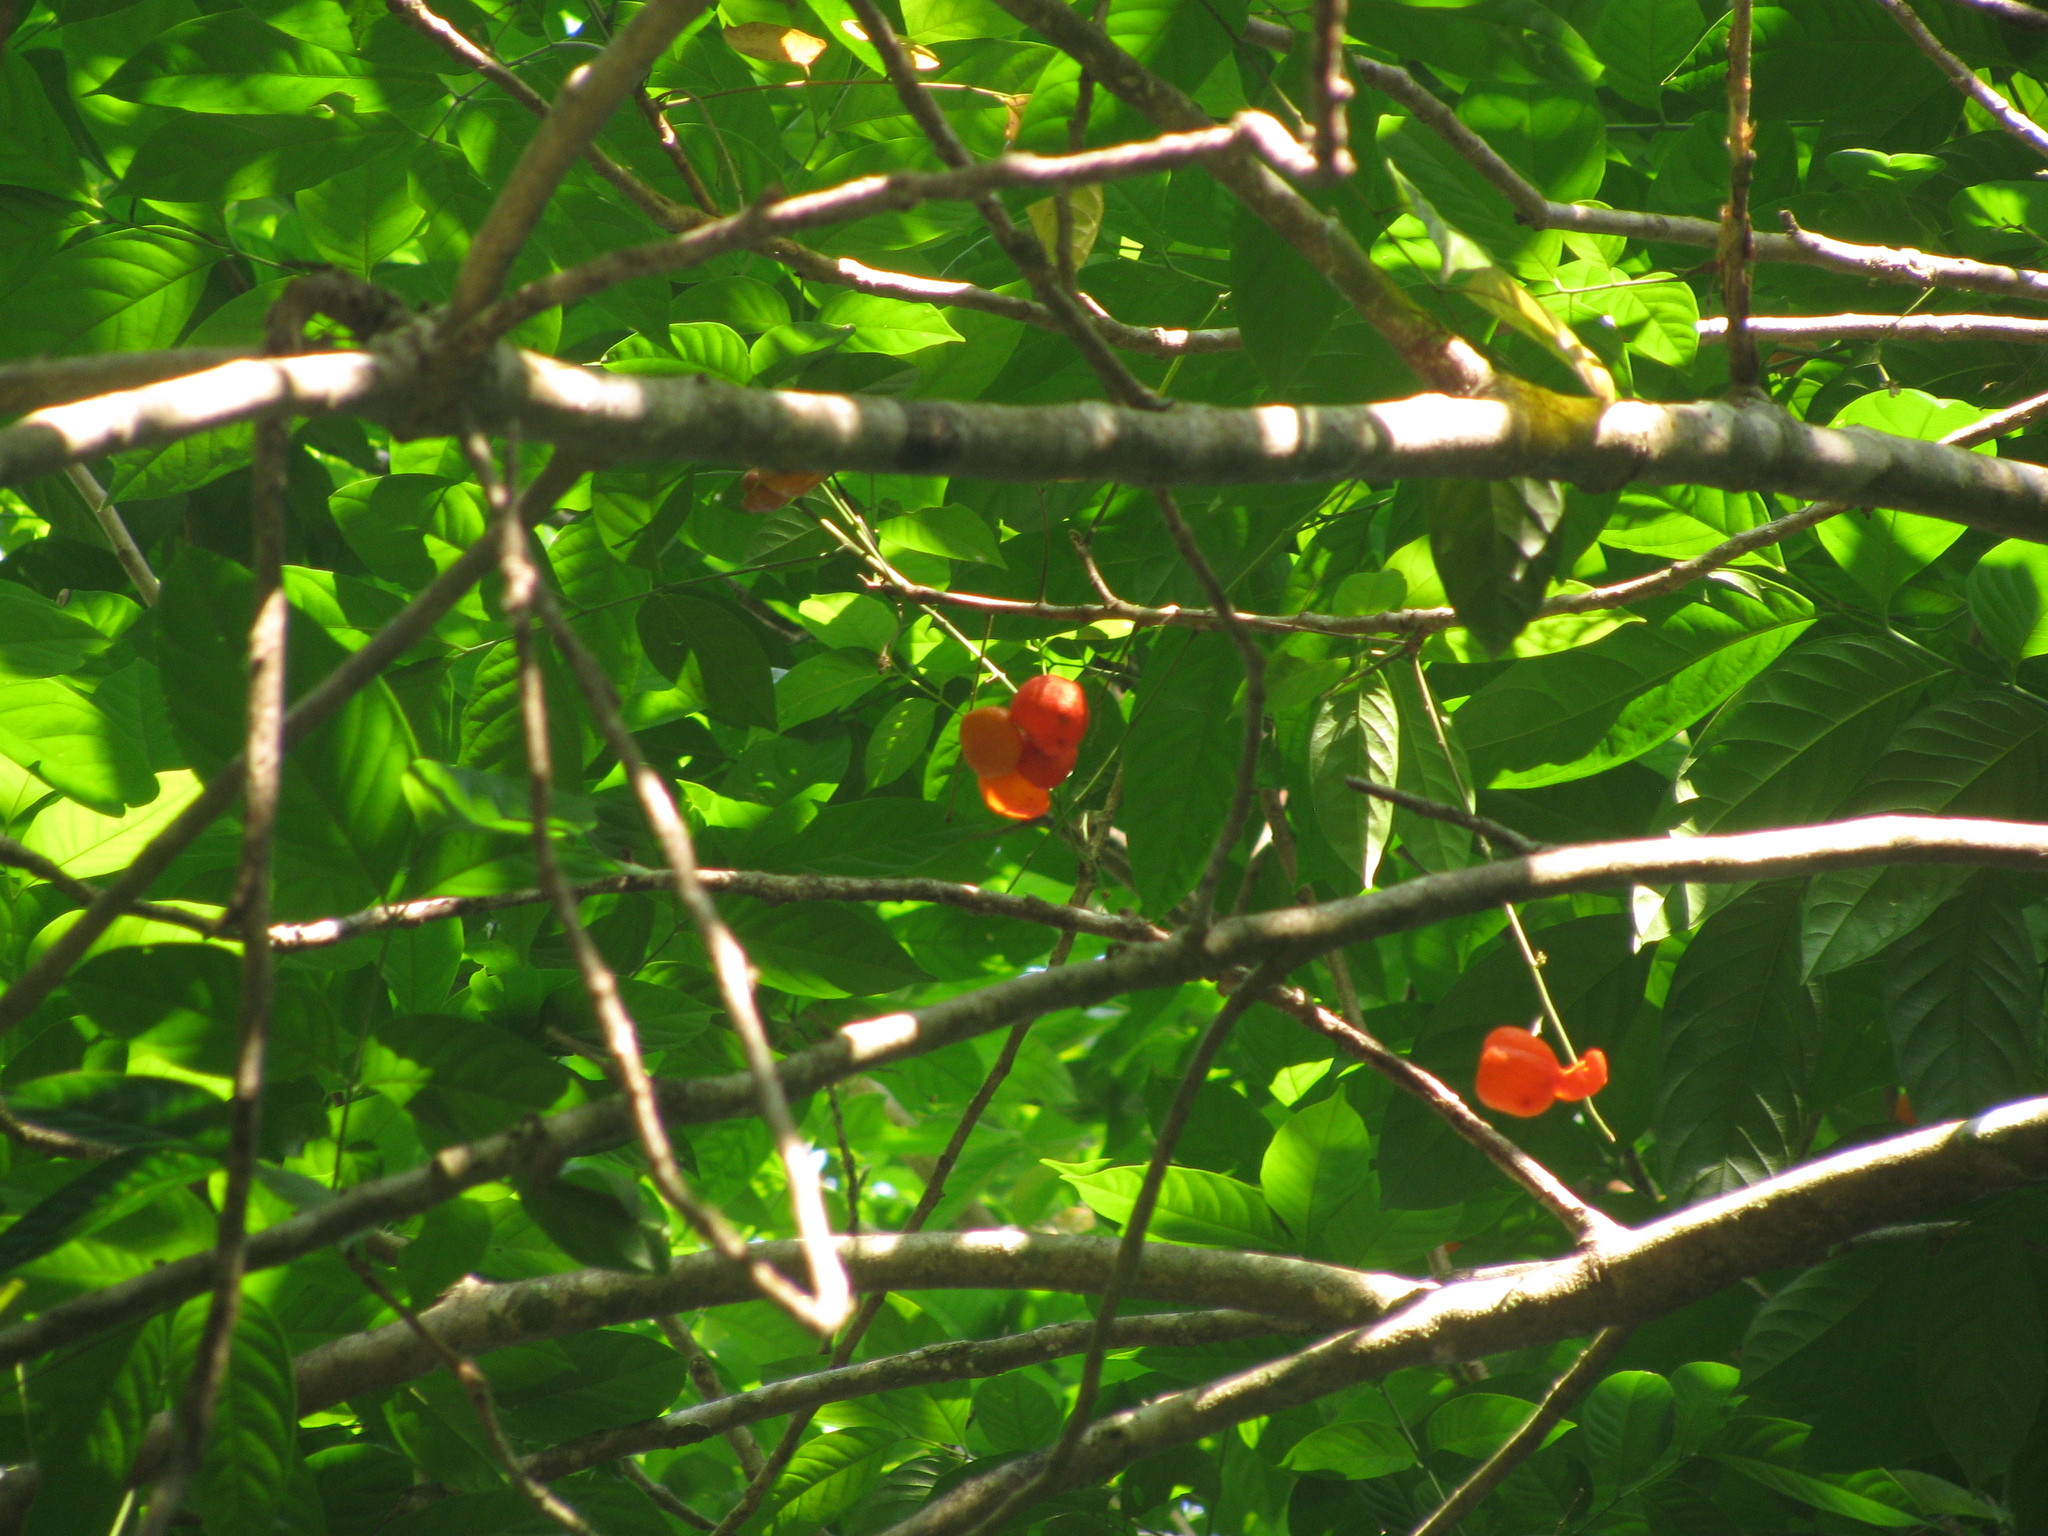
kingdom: Plantae
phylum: Tracheophyta
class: Magnoliopsida
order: Sapindales
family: Sapindaceae
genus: Harpullia
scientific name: Harpullia arborea
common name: Tulip-wood tree
